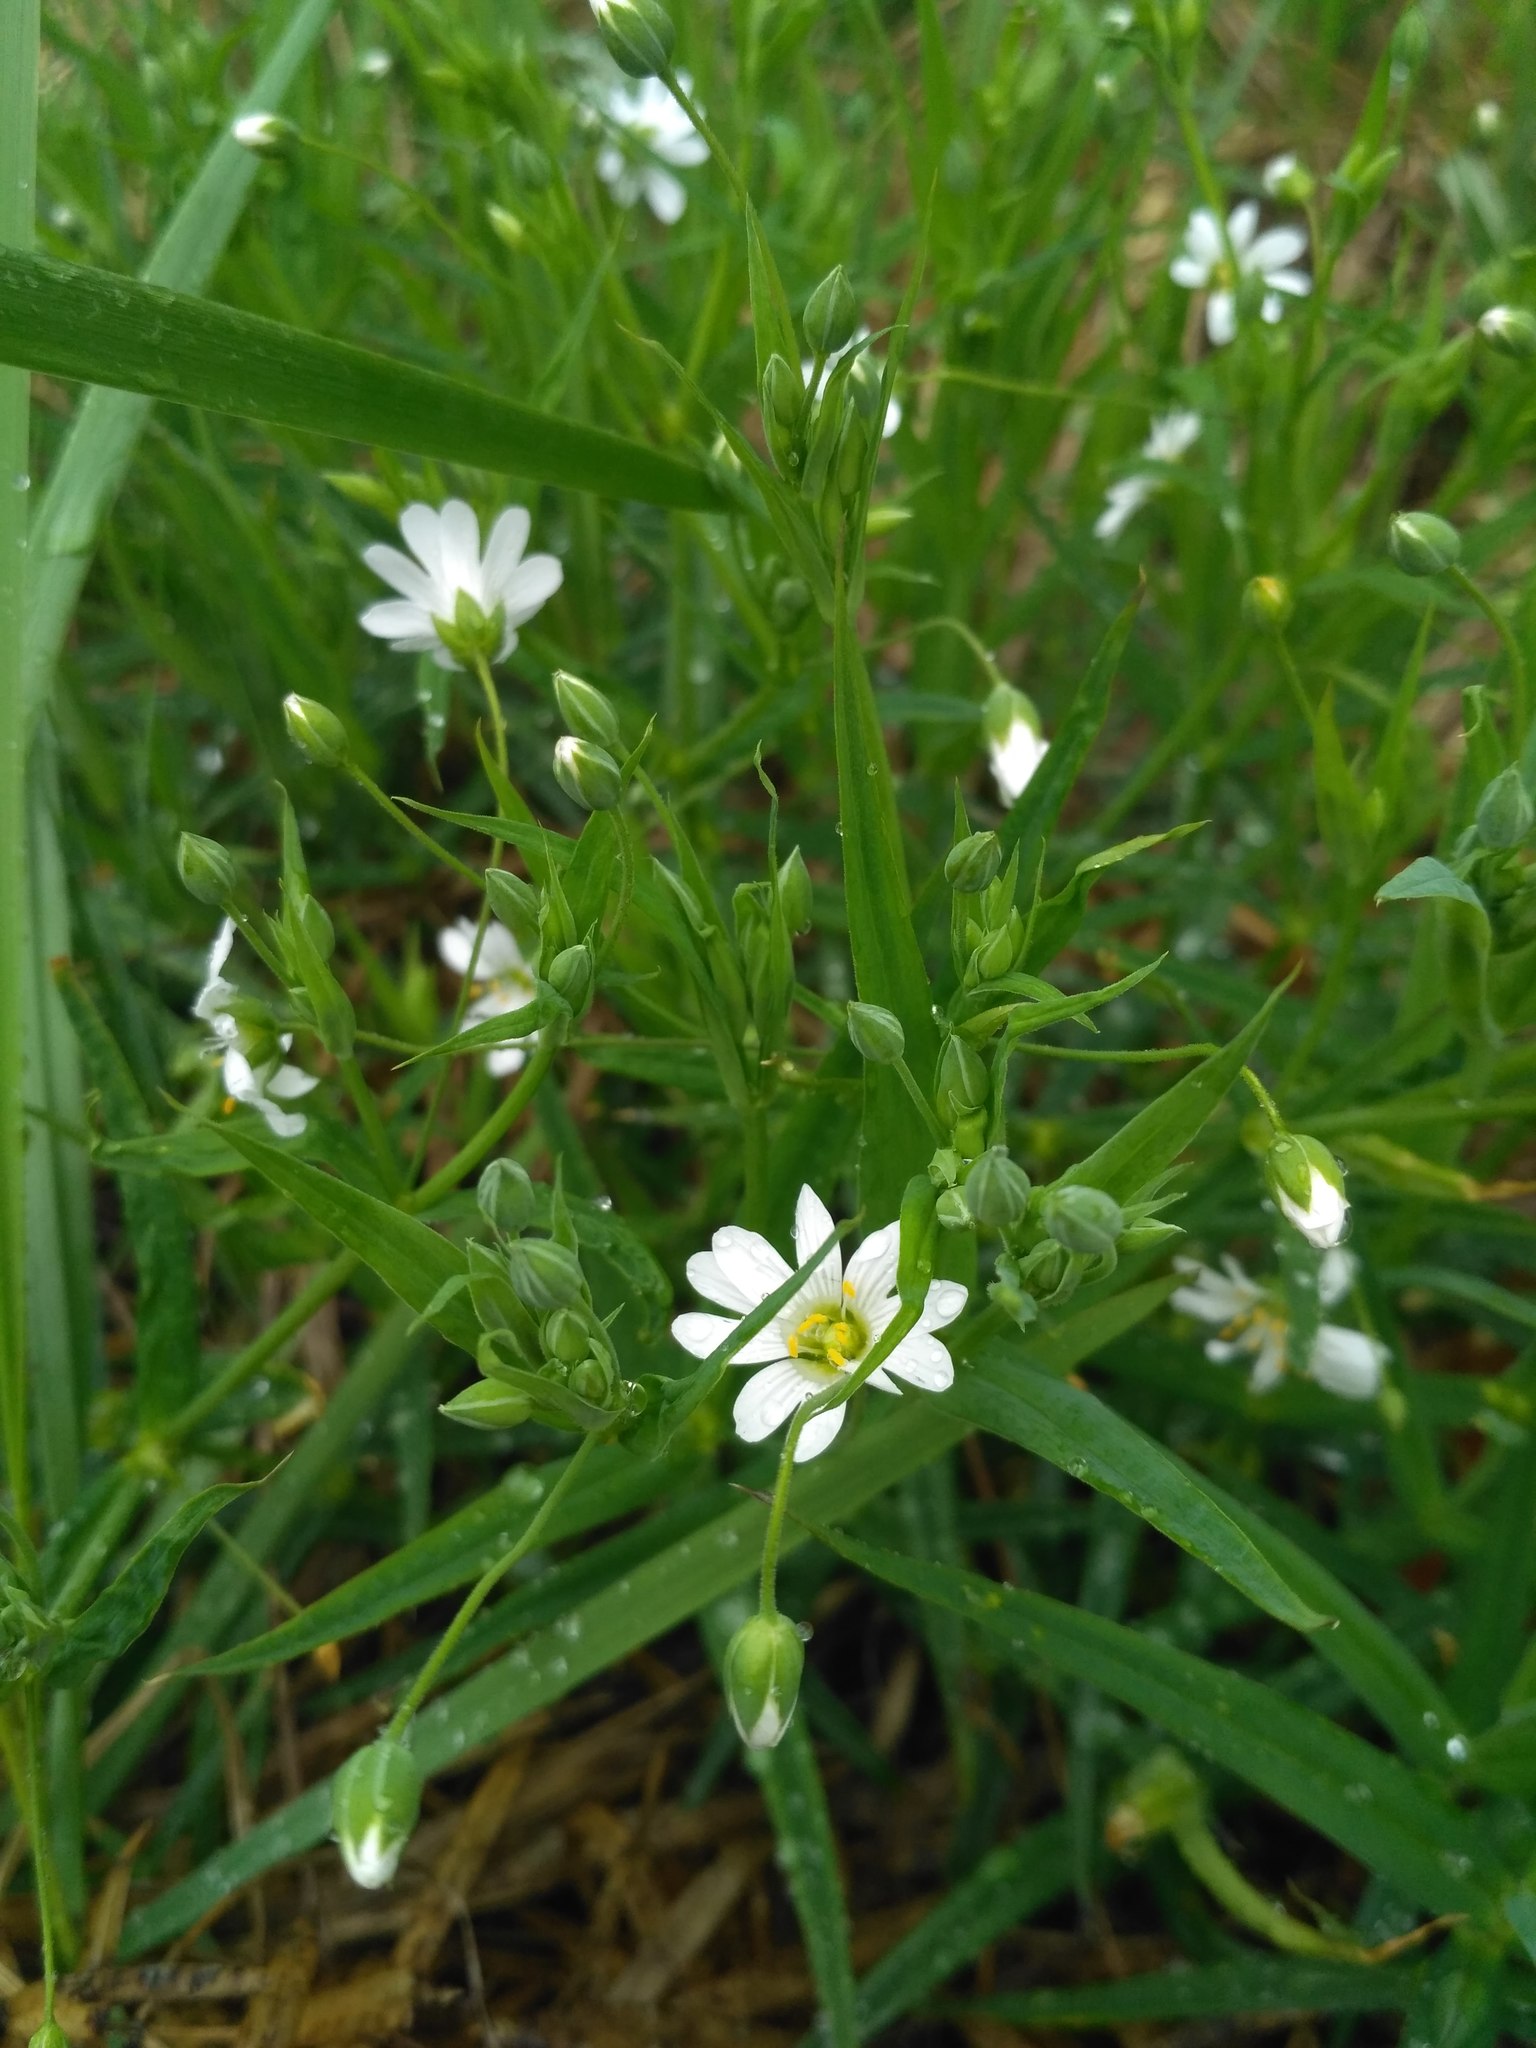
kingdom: Plantae
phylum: Tracheophyta
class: Magnoliopsida
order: Caryophyllales
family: Caryophyllaceae
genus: Rabelera
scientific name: Rabelera holostea
